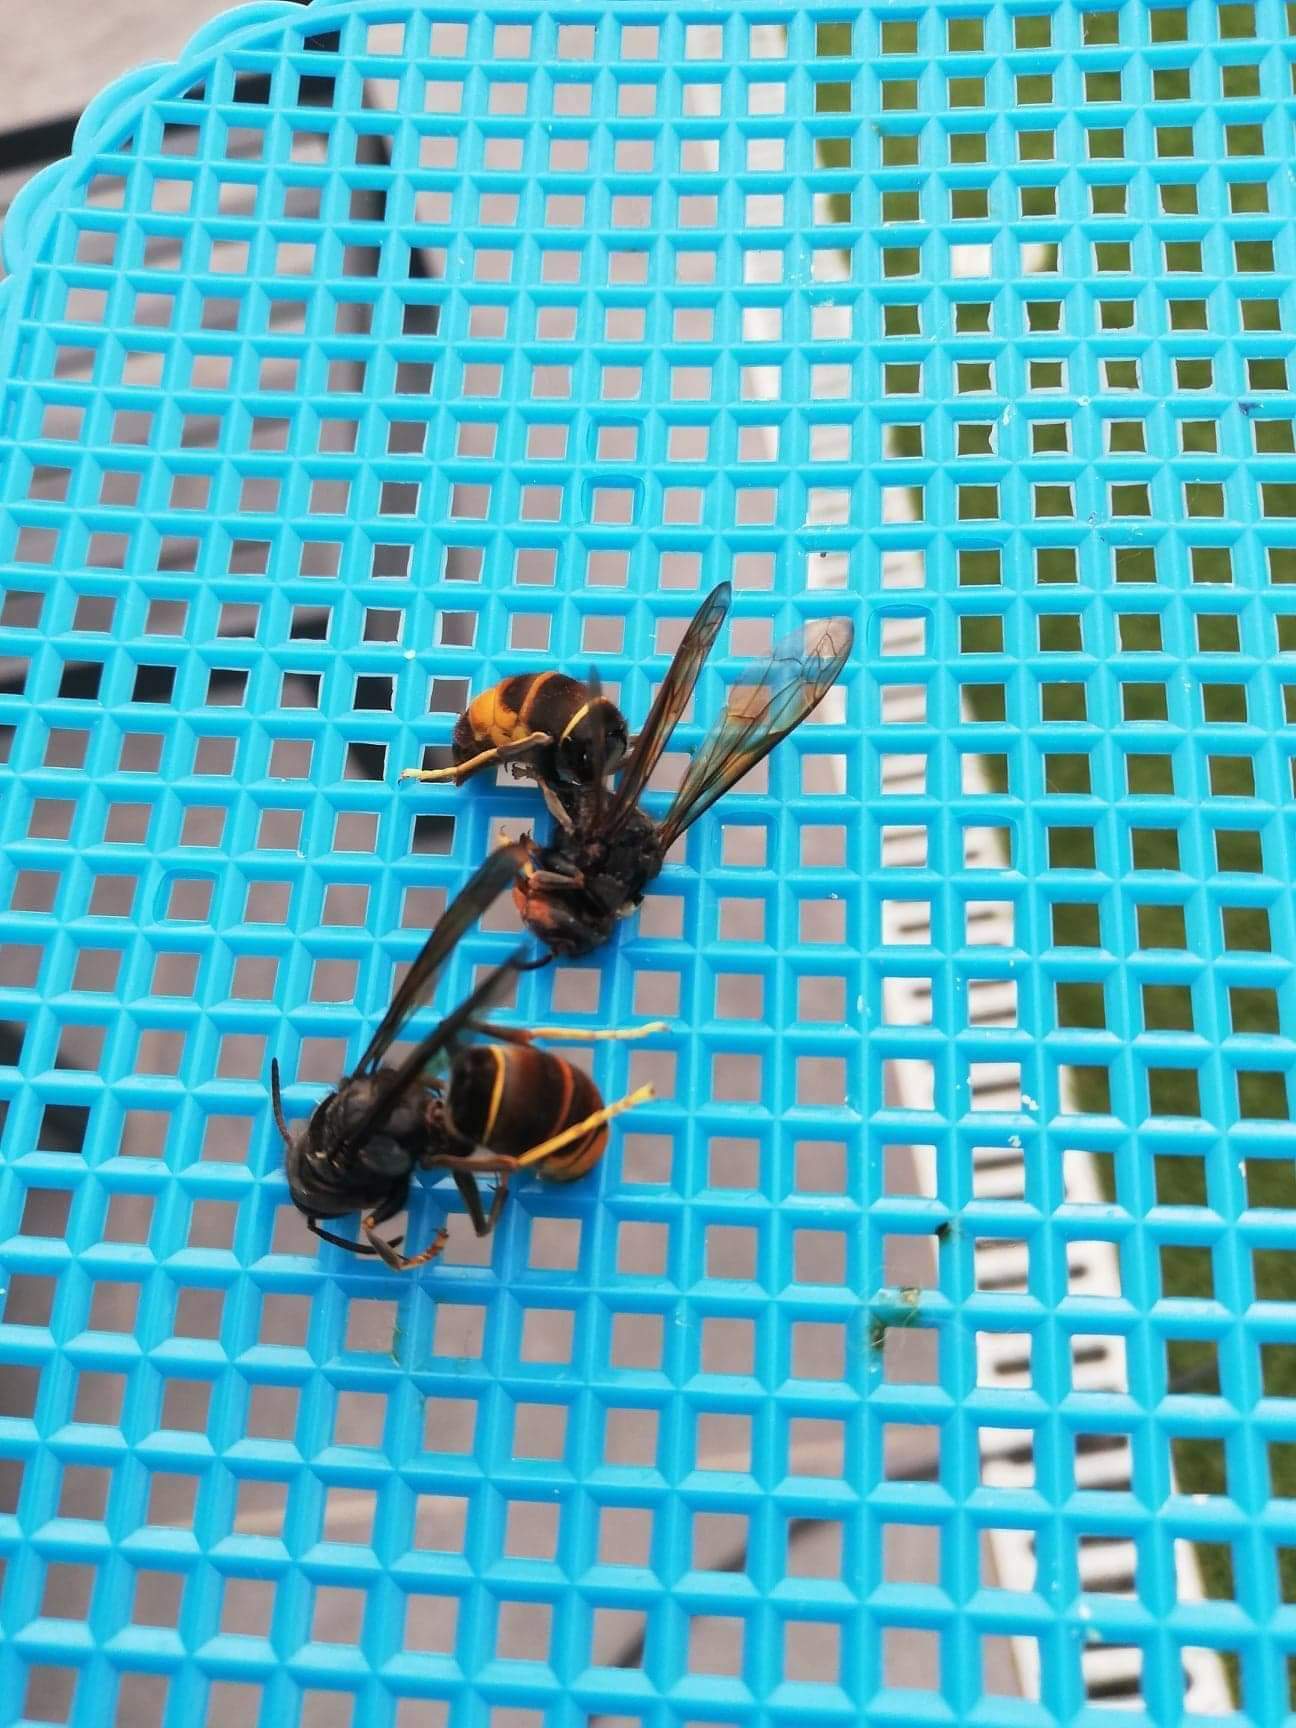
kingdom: Animalia
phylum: Arthropoda
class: Insecta
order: Hymenoptera
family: Vespidae
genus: Vespa
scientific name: Vespa velutina
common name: Asian hornet
